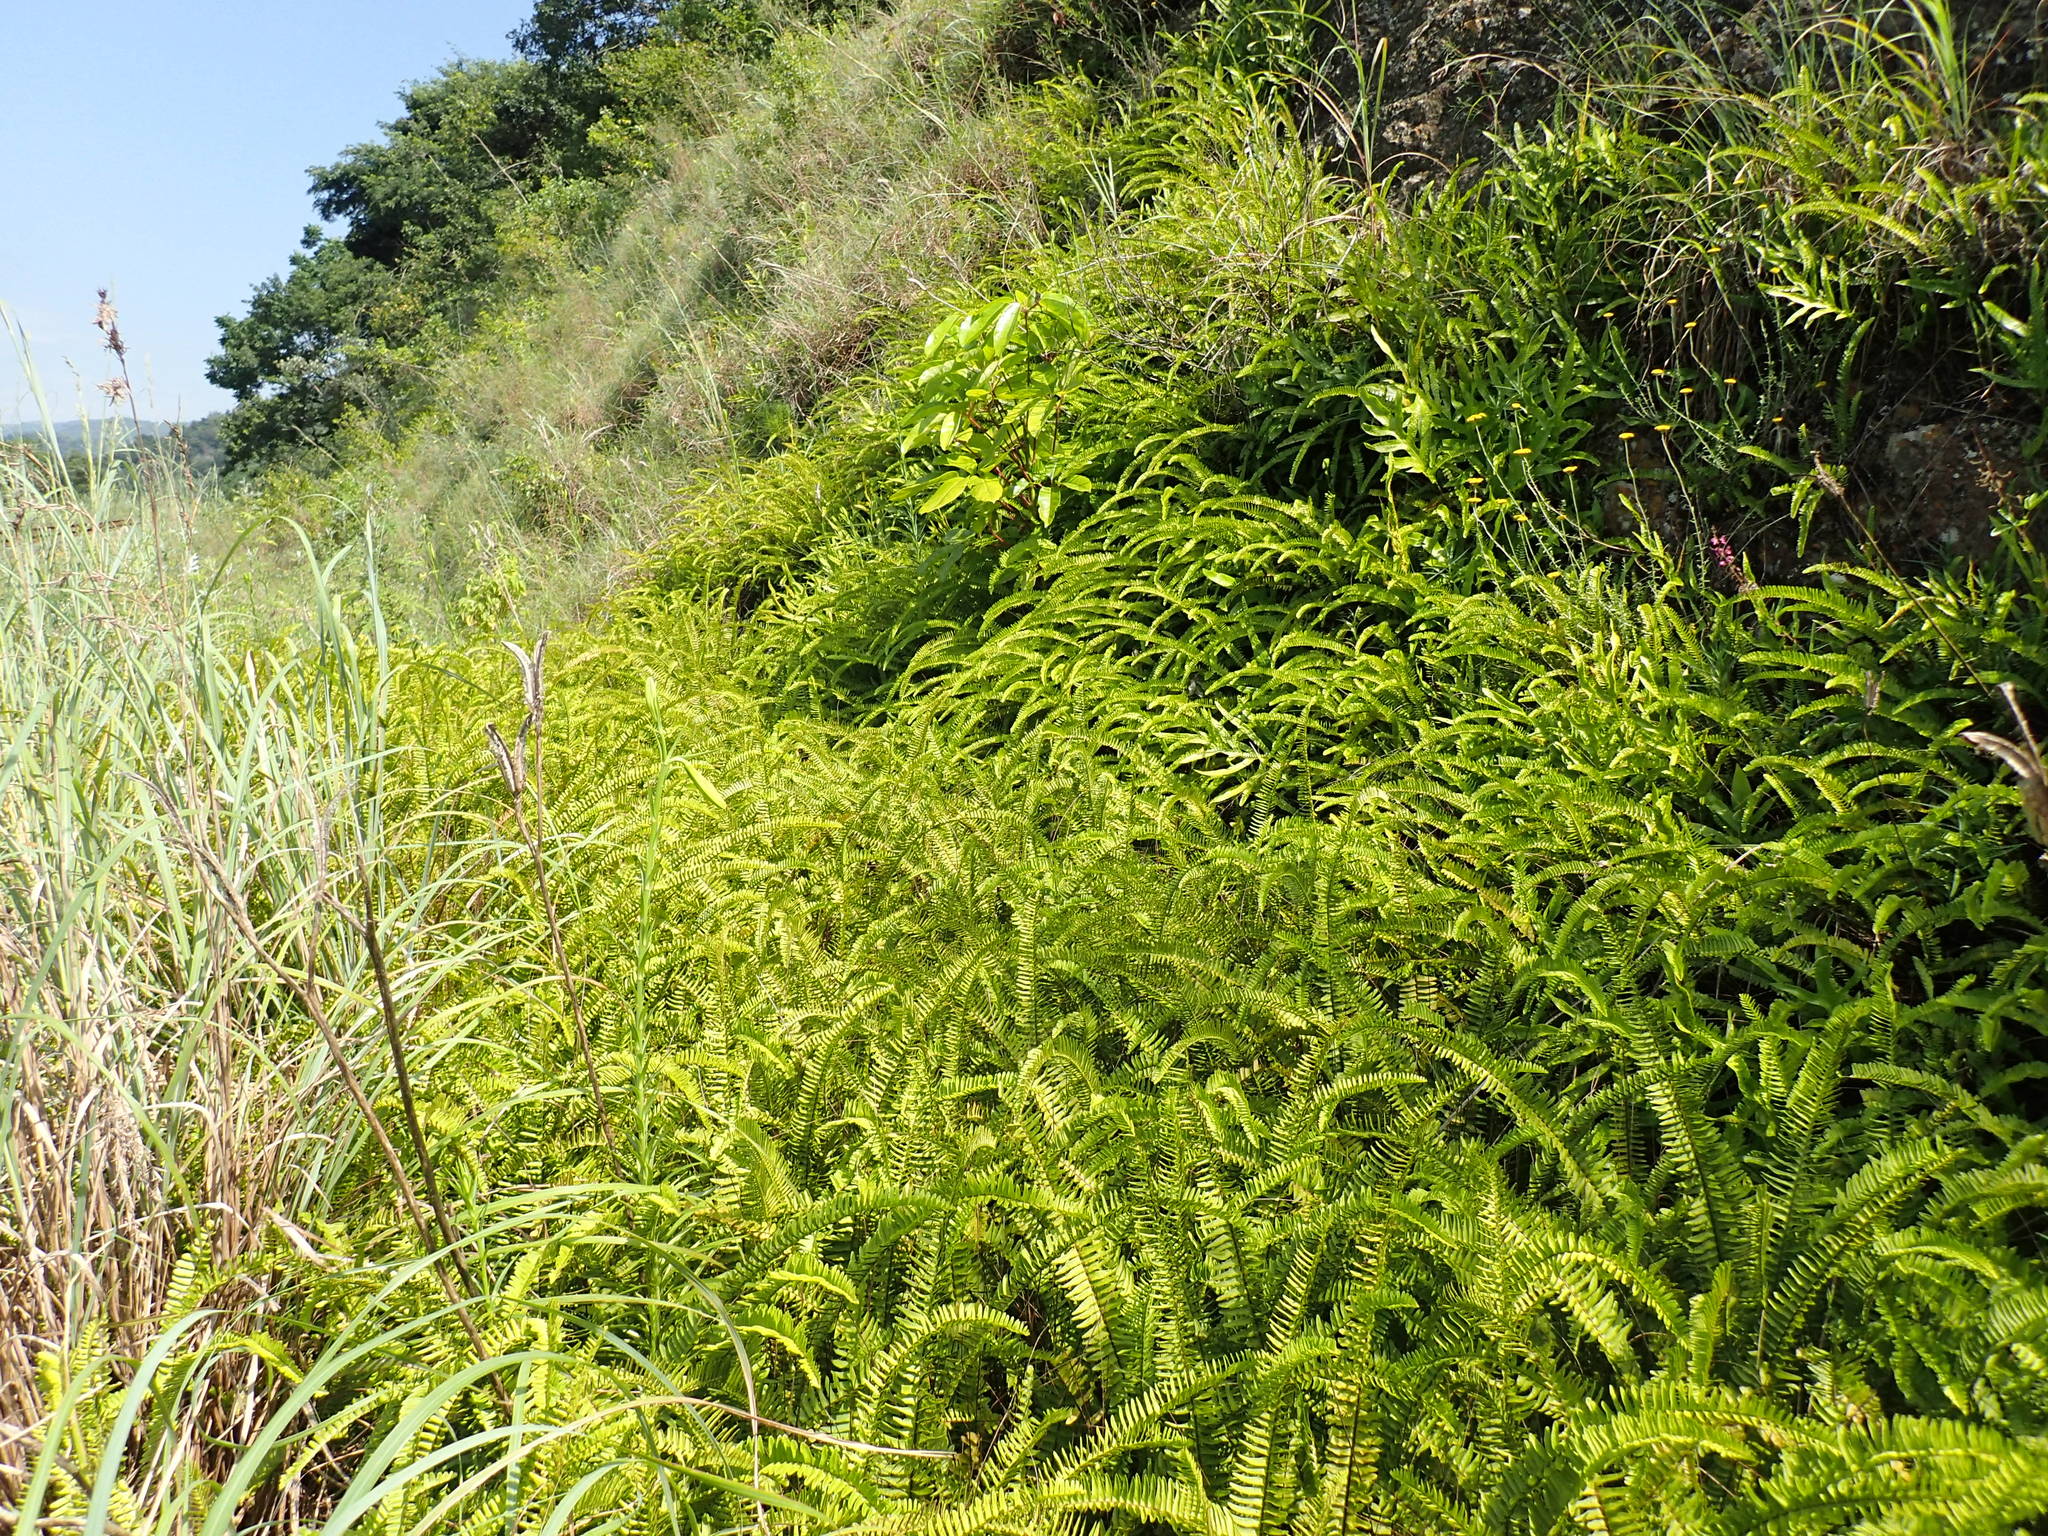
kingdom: Plantae
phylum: Tracheophyta
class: Polypodiopsida
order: Gleicheniales
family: Gleicheniaceae
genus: Dicranopteris
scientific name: Dicranopteris linearis
